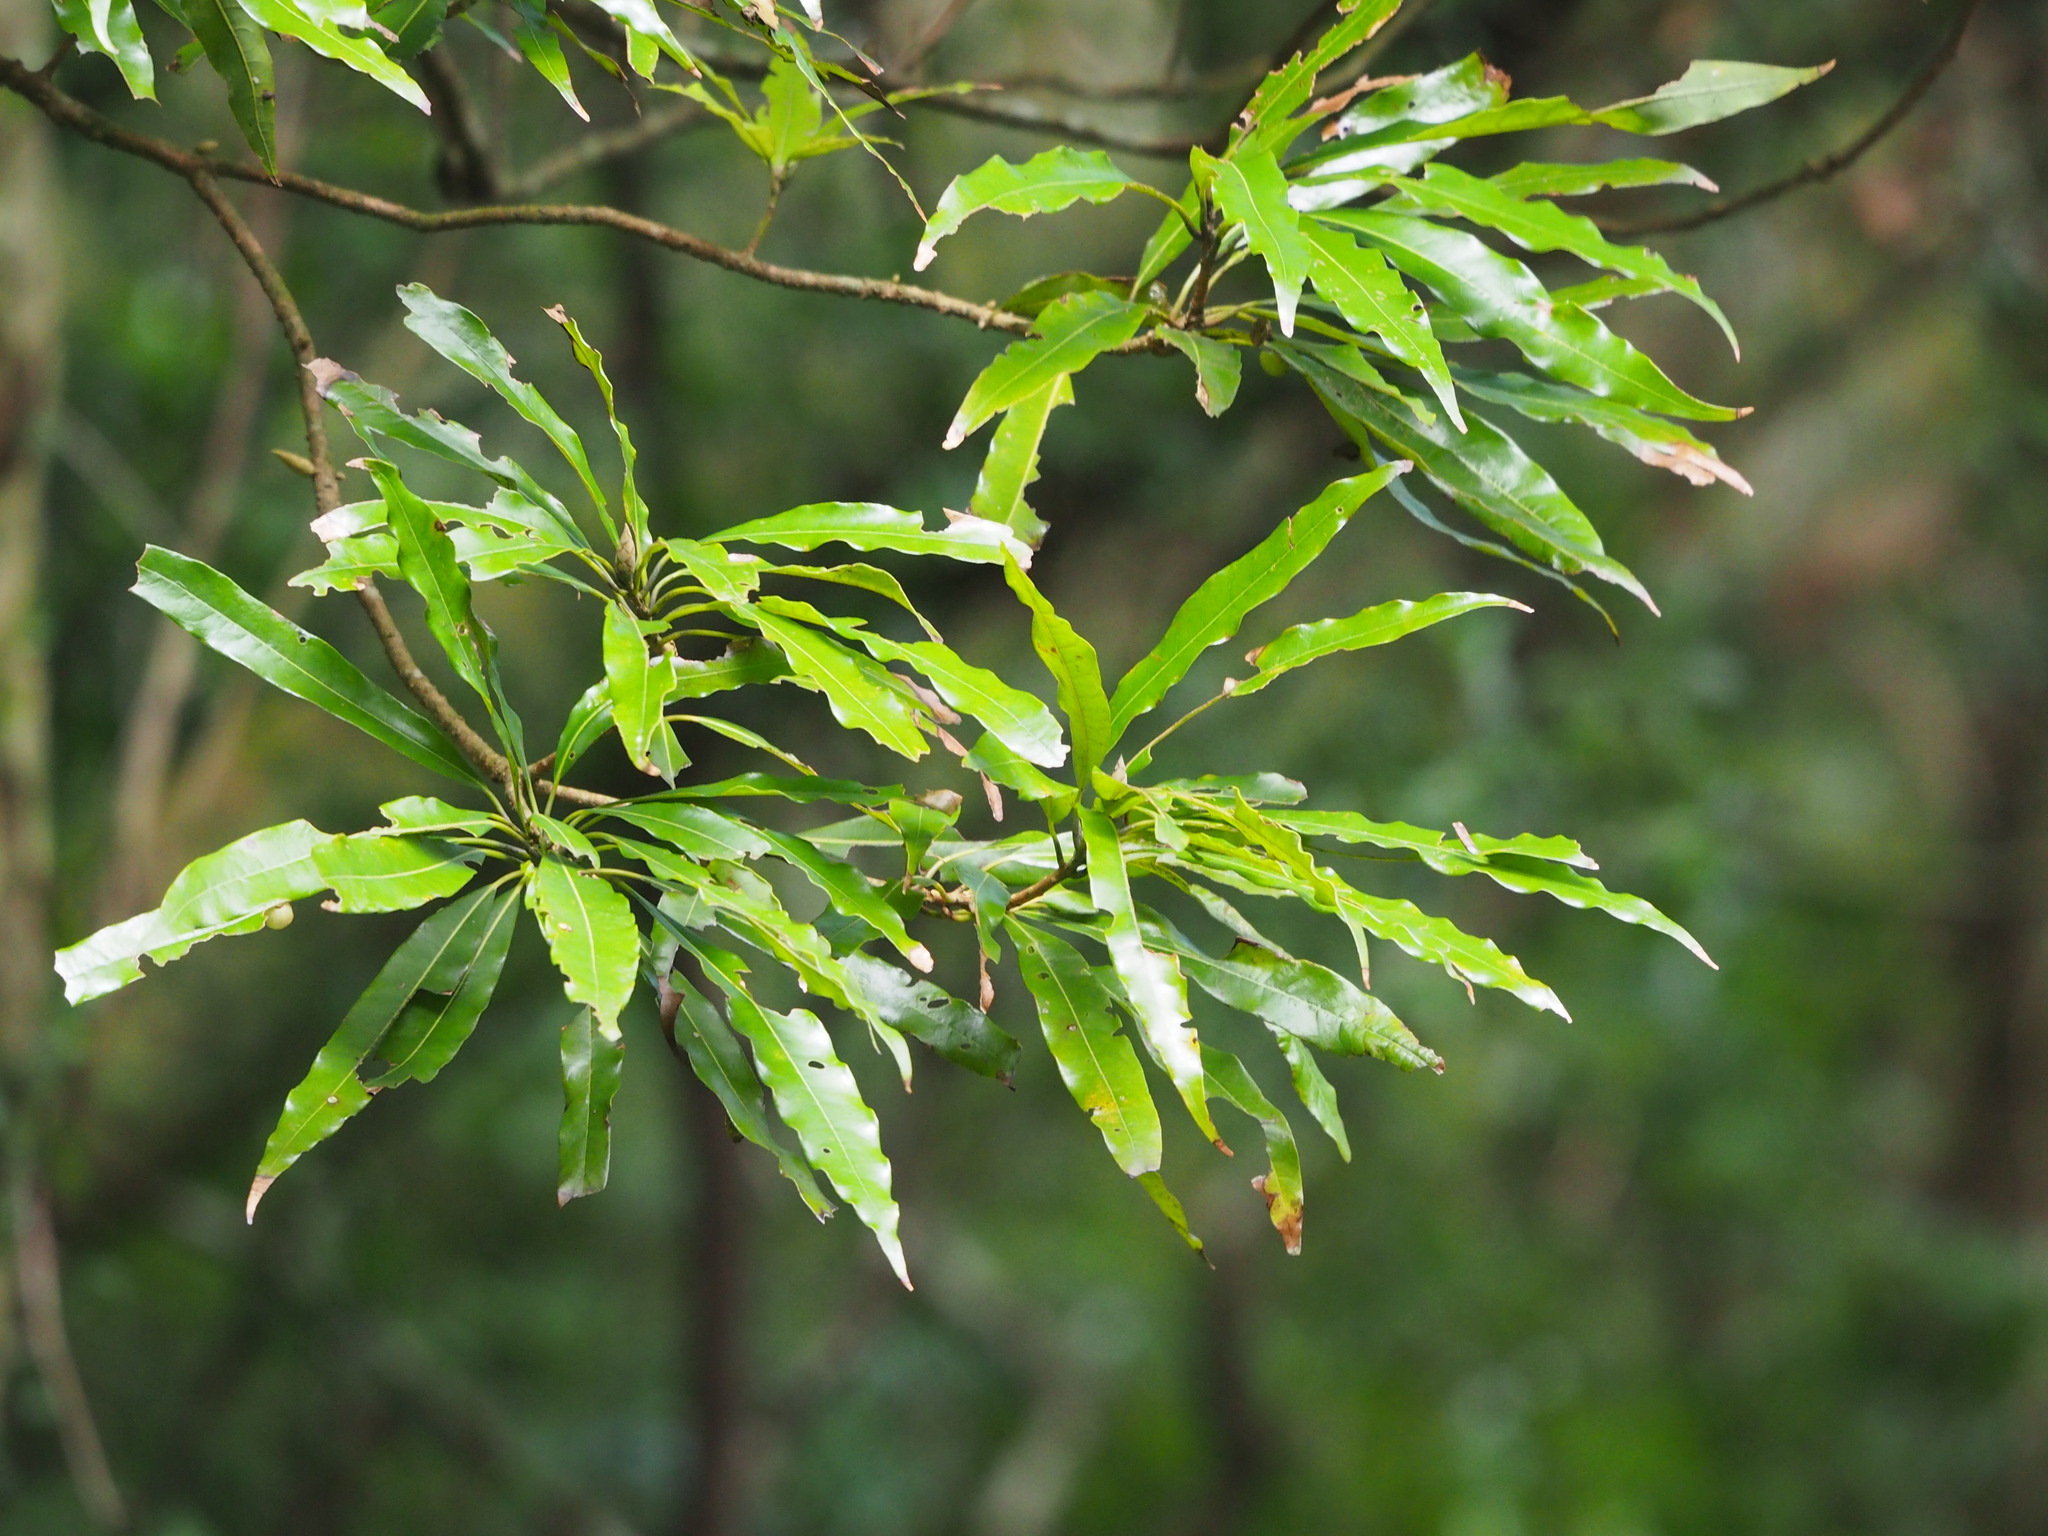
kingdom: Plantae
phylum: Tracheophyta
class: Magnoliopsida
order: Laurales
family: Lauraceae
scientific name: Lauraceae
